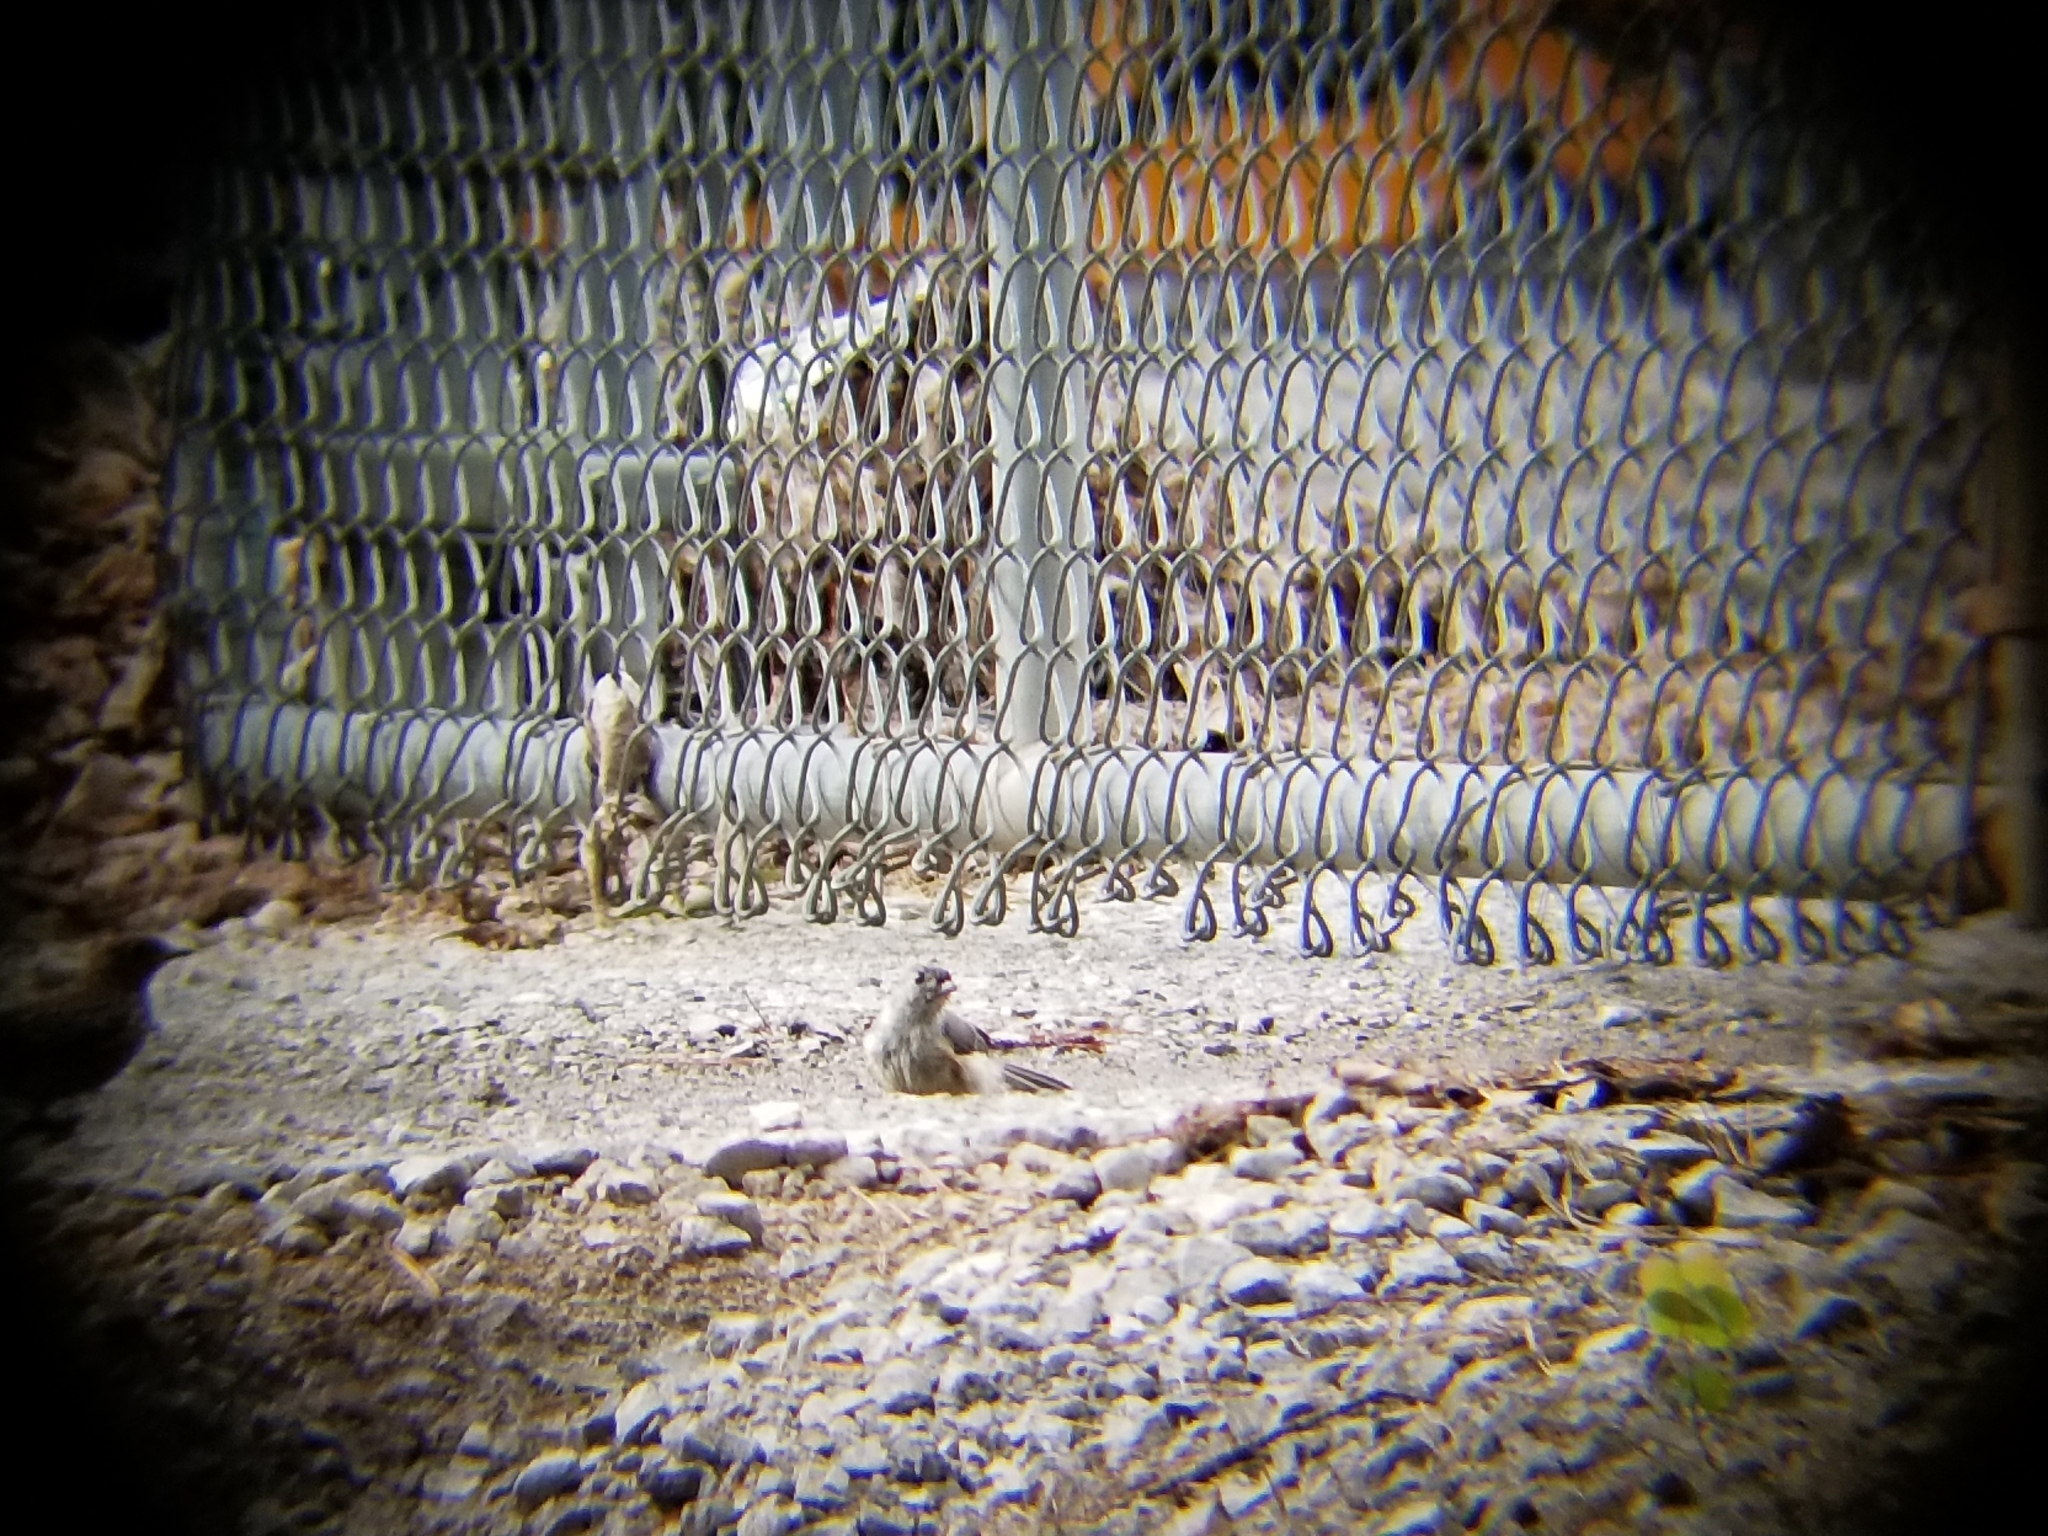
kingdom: Animalia
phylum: Chordata
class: Aves
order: Passeriformes
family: Paridae
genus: Baeolophus
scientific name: Baeolophus bicolor
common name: Tufted titmouse
